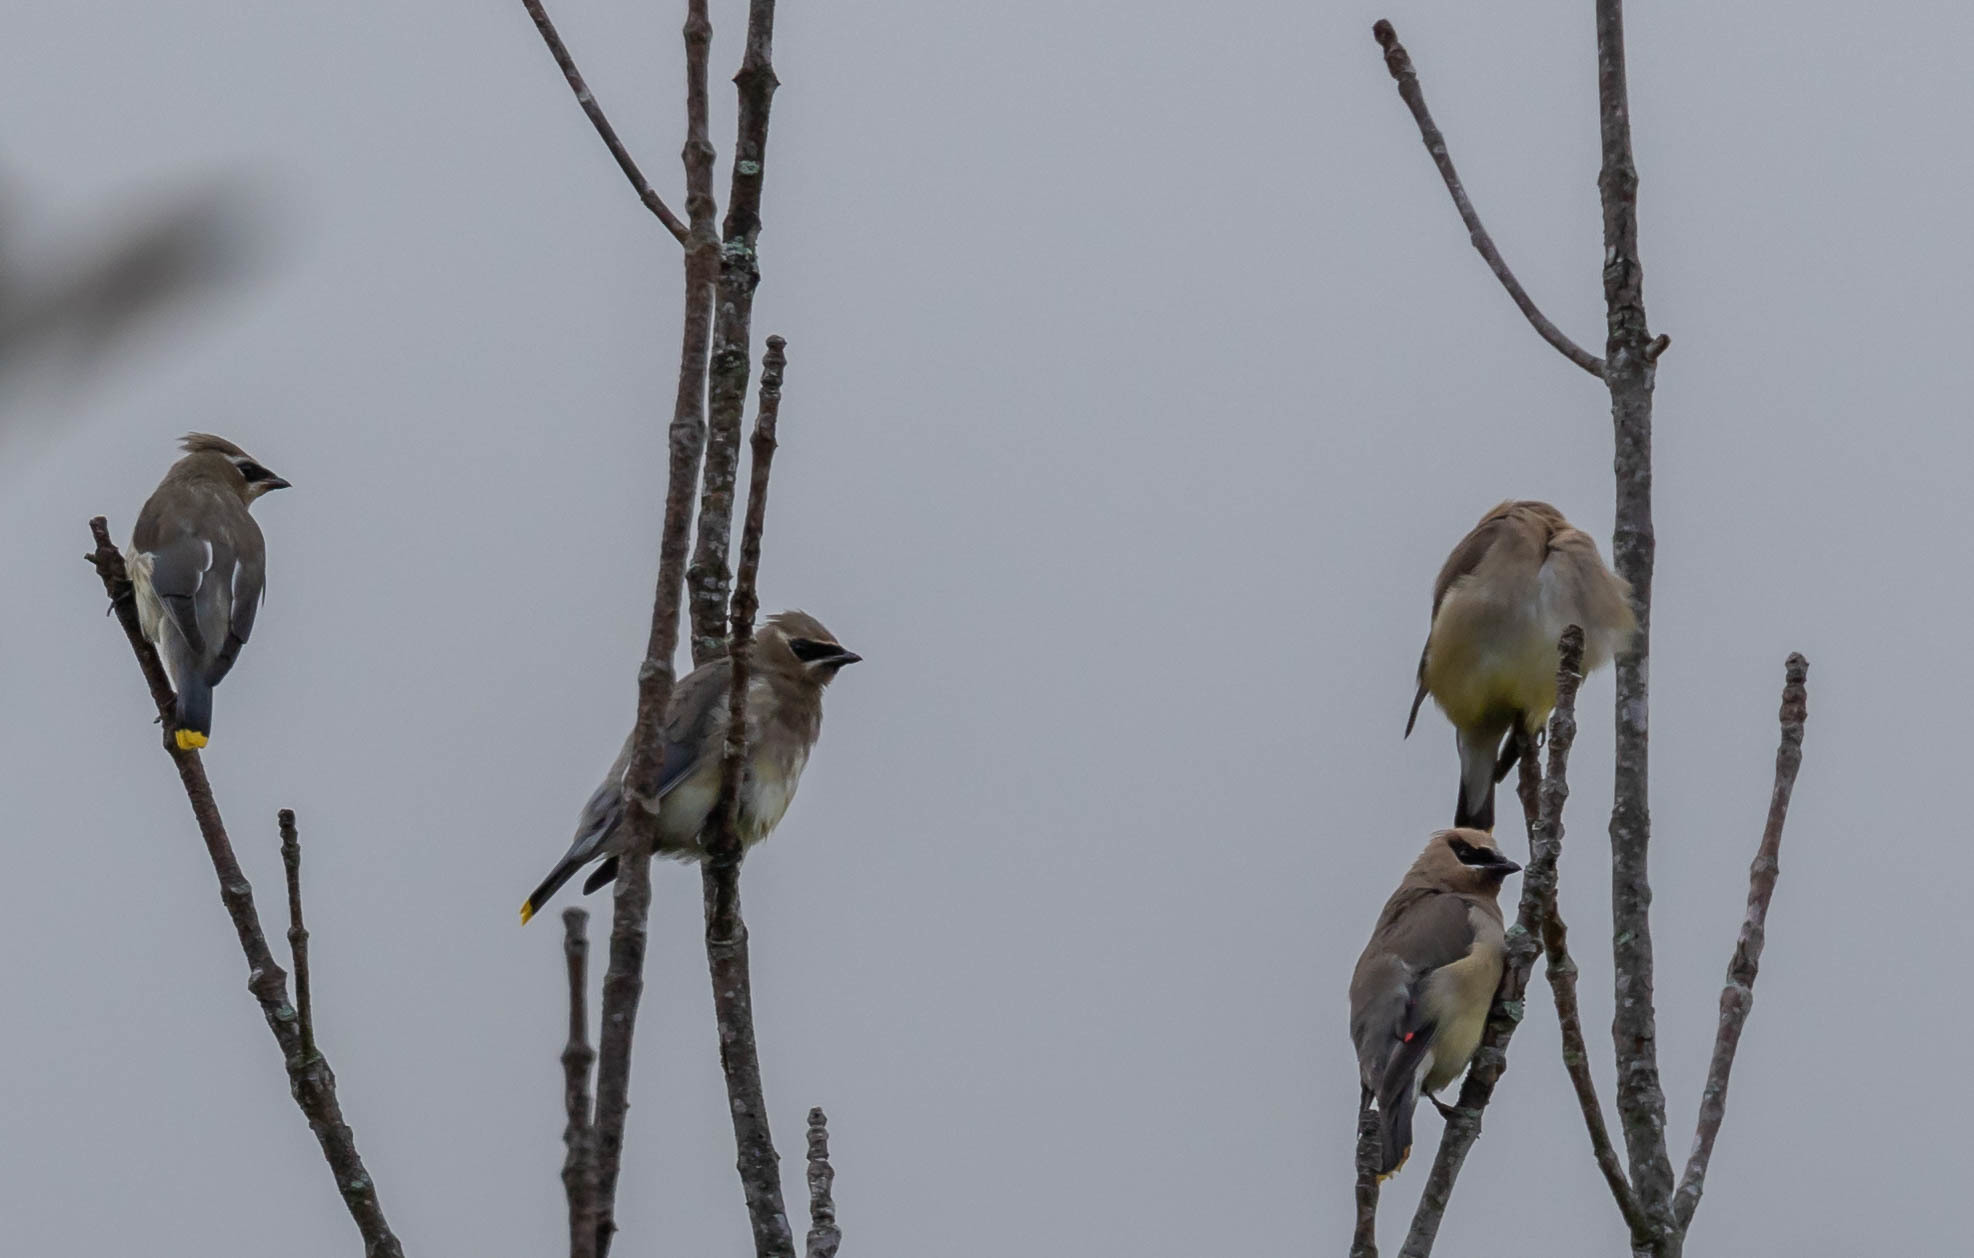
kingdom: Animalia
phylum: Chordata
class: Aves
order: Passeriformes
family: Bombycillidae
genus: Bombycilla
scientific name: Bombycilla cedrorum
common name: Cedar waxwing
